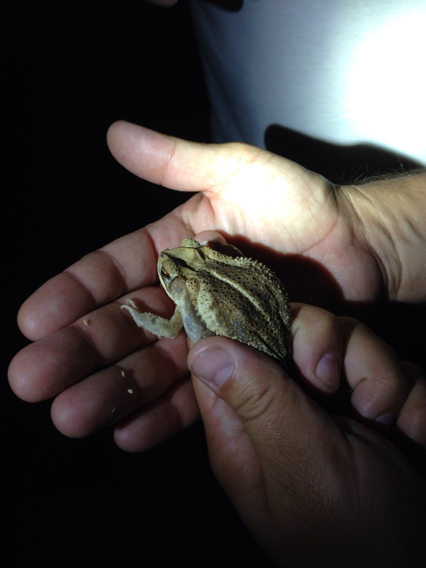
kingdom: Animalia
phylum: Chordata
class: Amphibia
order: Anura
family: Bufonidae
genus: Incilius
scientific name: Incilius nebulifer
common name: Gulf coast toad
